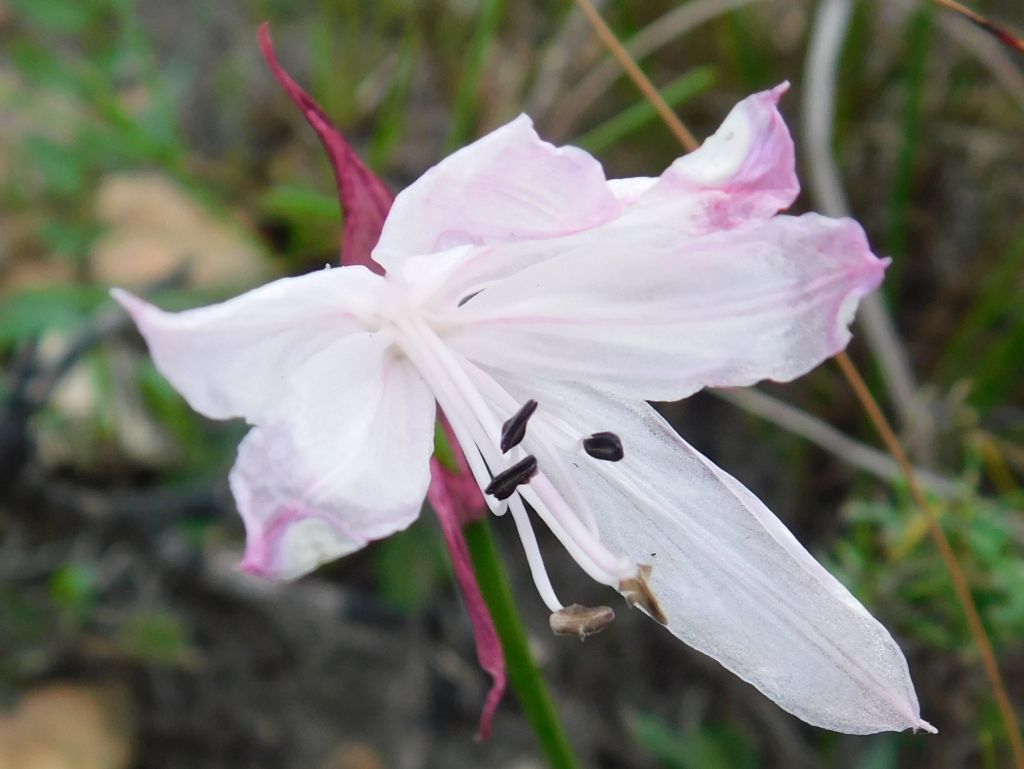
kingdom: Plantae
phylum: Tracheophyta
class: Liliopsida
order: Asparagales
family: Amaryllidaceae
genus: Nerine
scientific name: Nerine pudica
